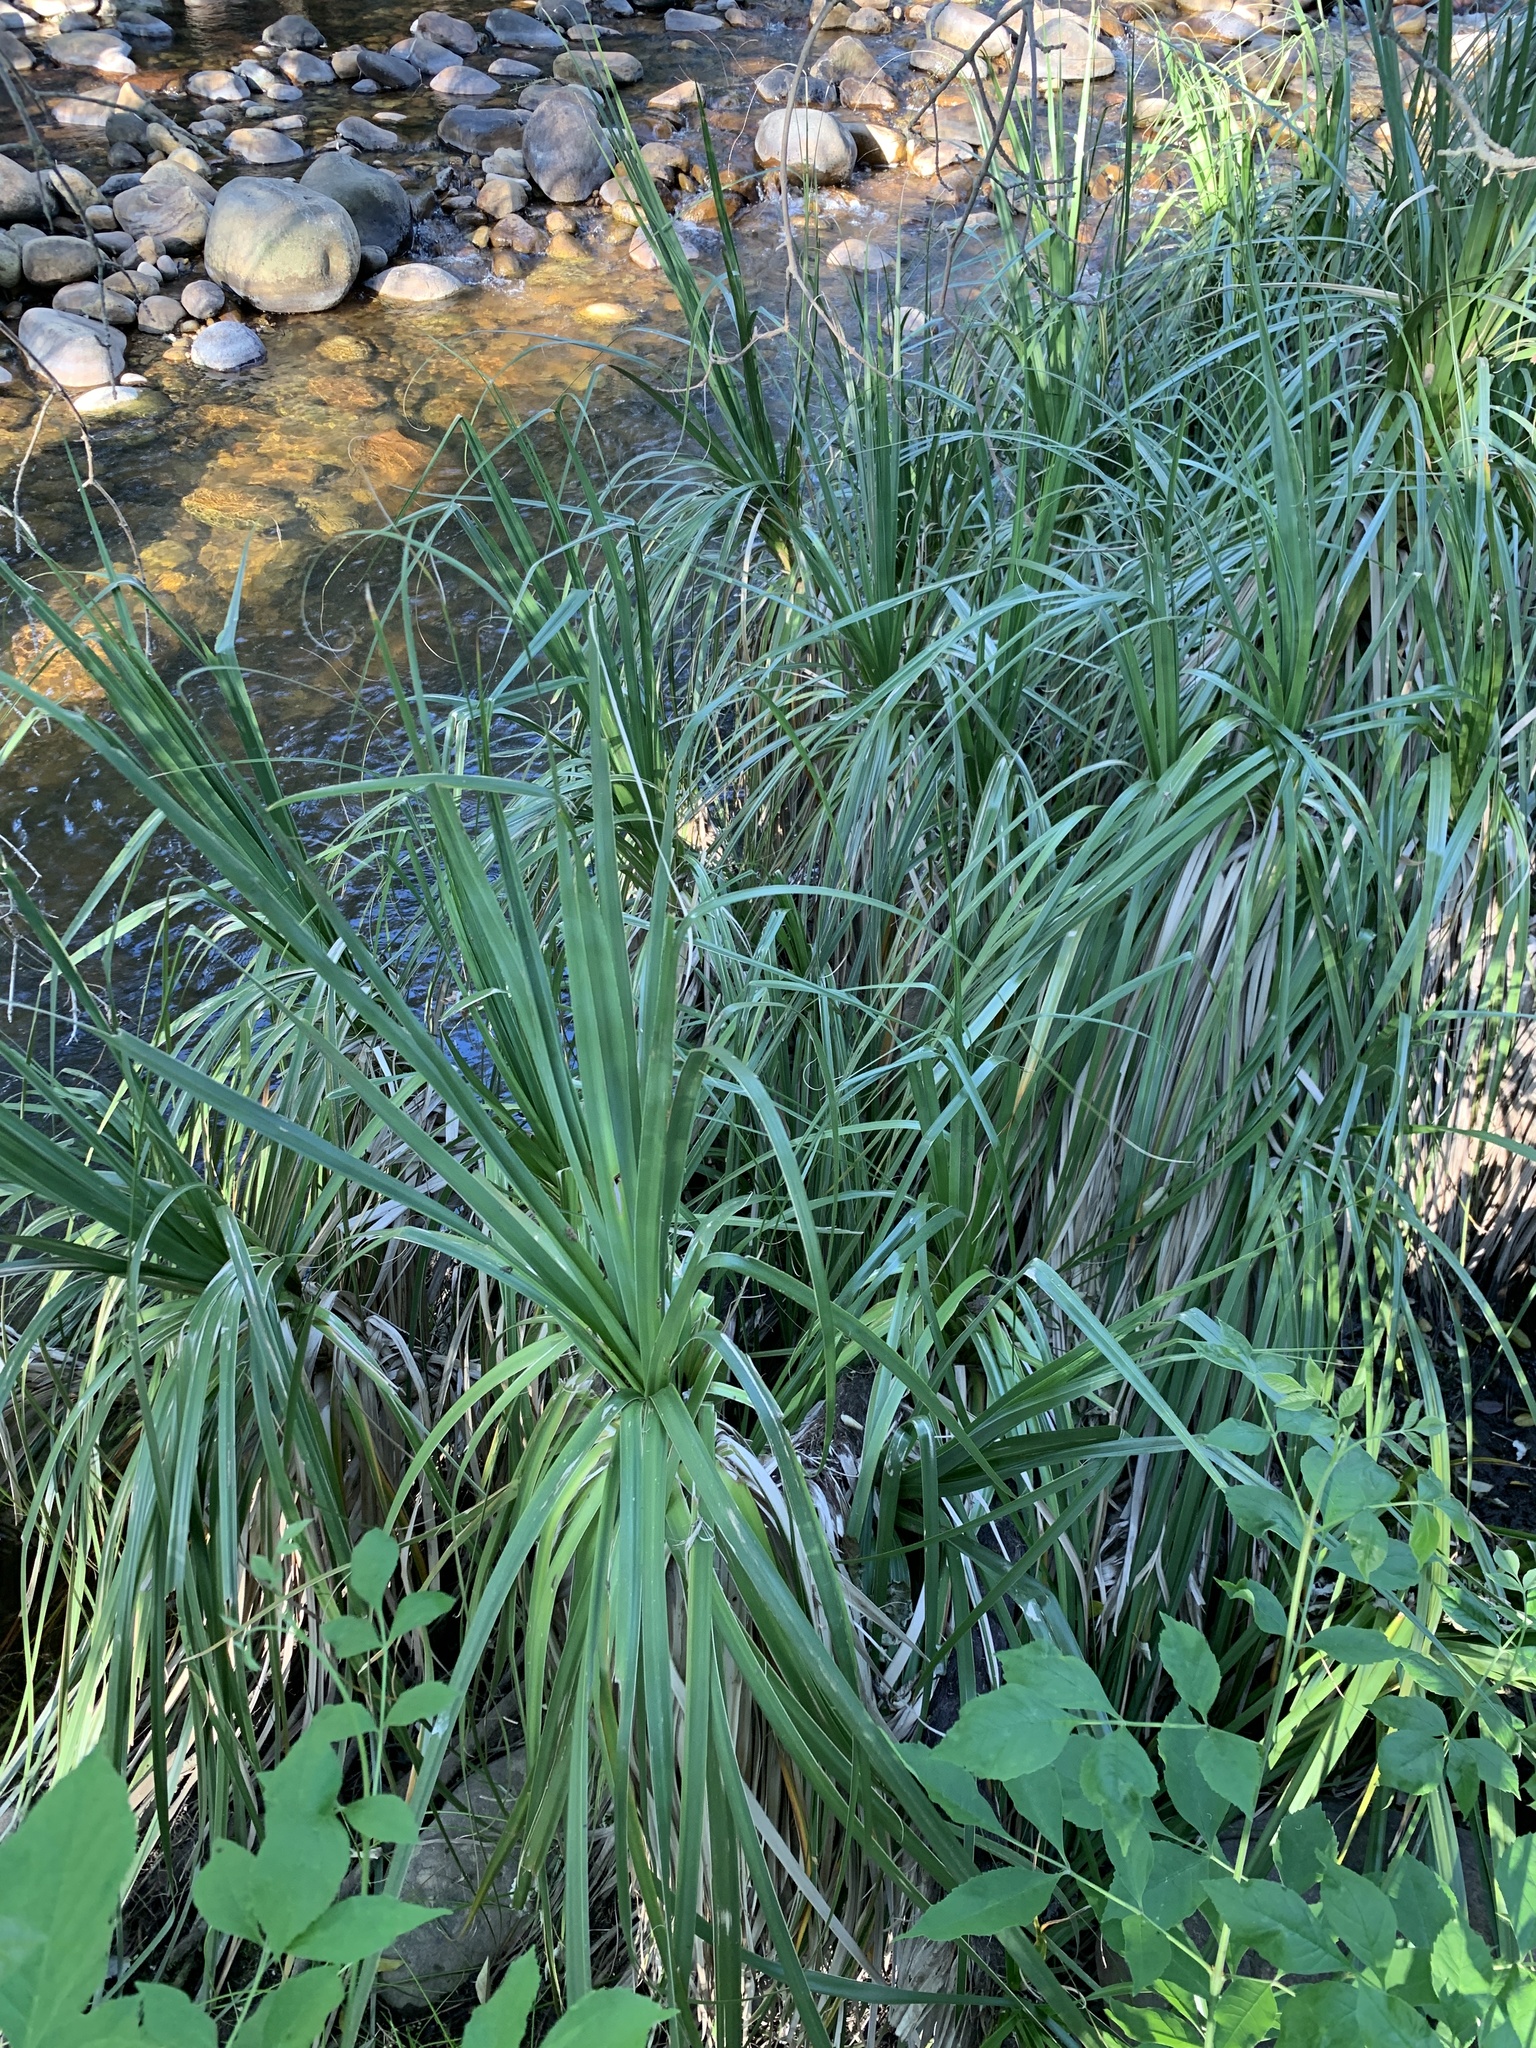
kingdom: Plantae
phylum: Tracheophyta
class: Liliopsida
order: Poales
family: Thurniaceae
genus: Prionium
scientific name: Prionium serratum
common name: Palmiet
